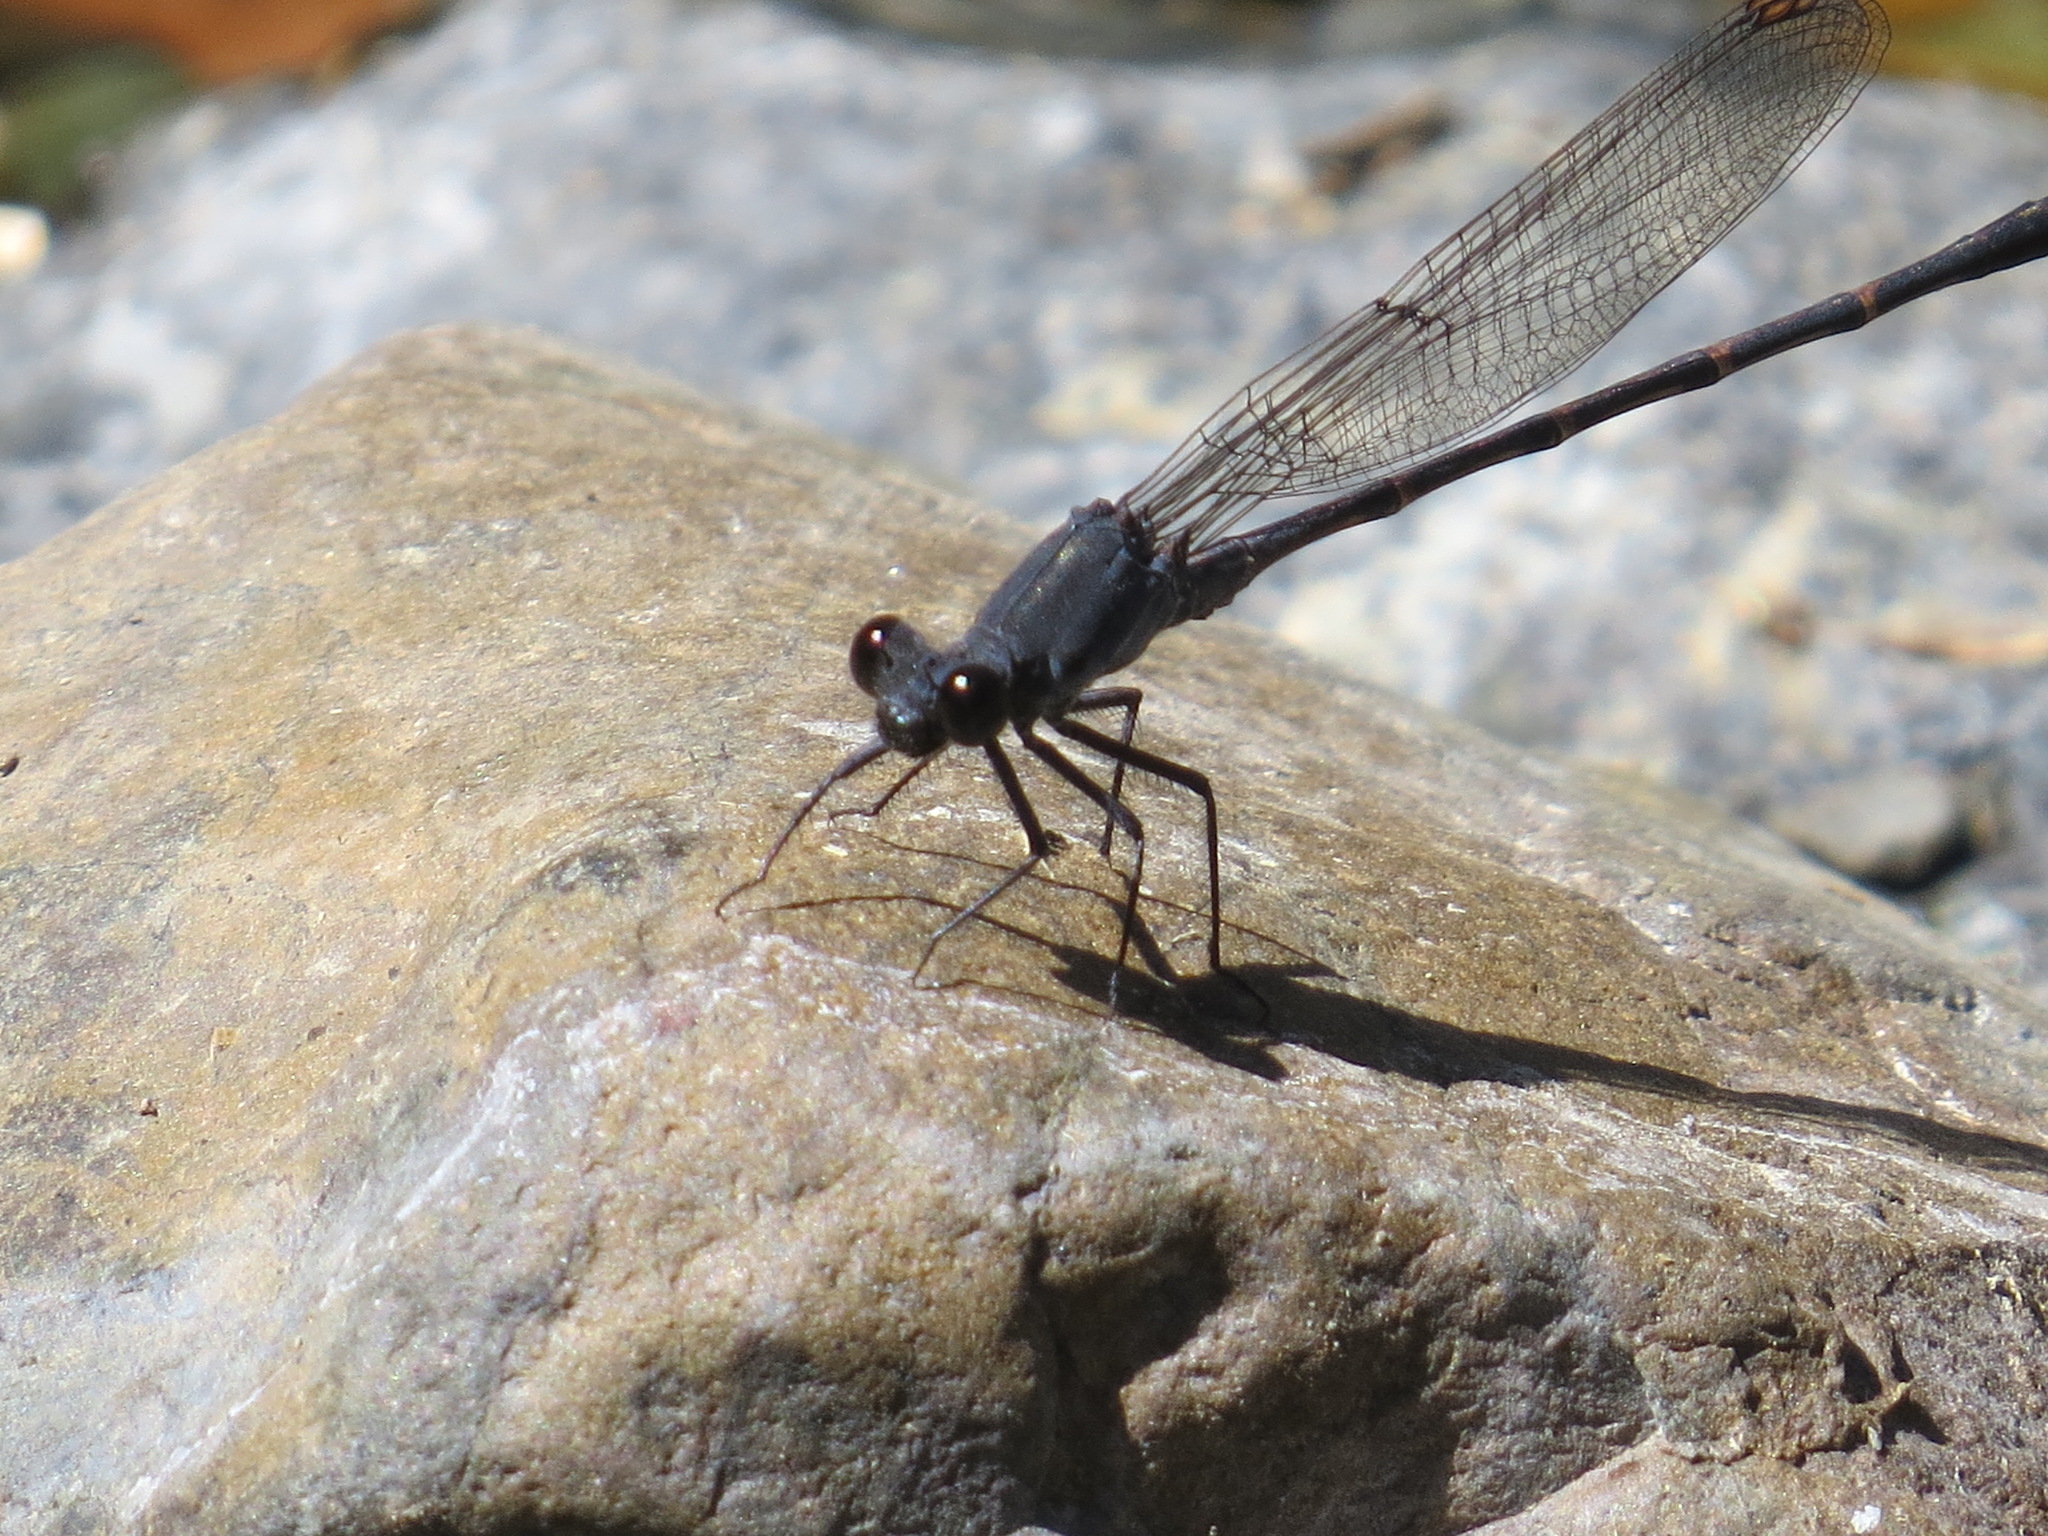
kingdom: Animalia
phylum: Arthropoda
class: Insecta
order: Odonata
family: Coenagrionidae
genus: Argia
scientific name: Argia lugens
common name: Sooty dancer
